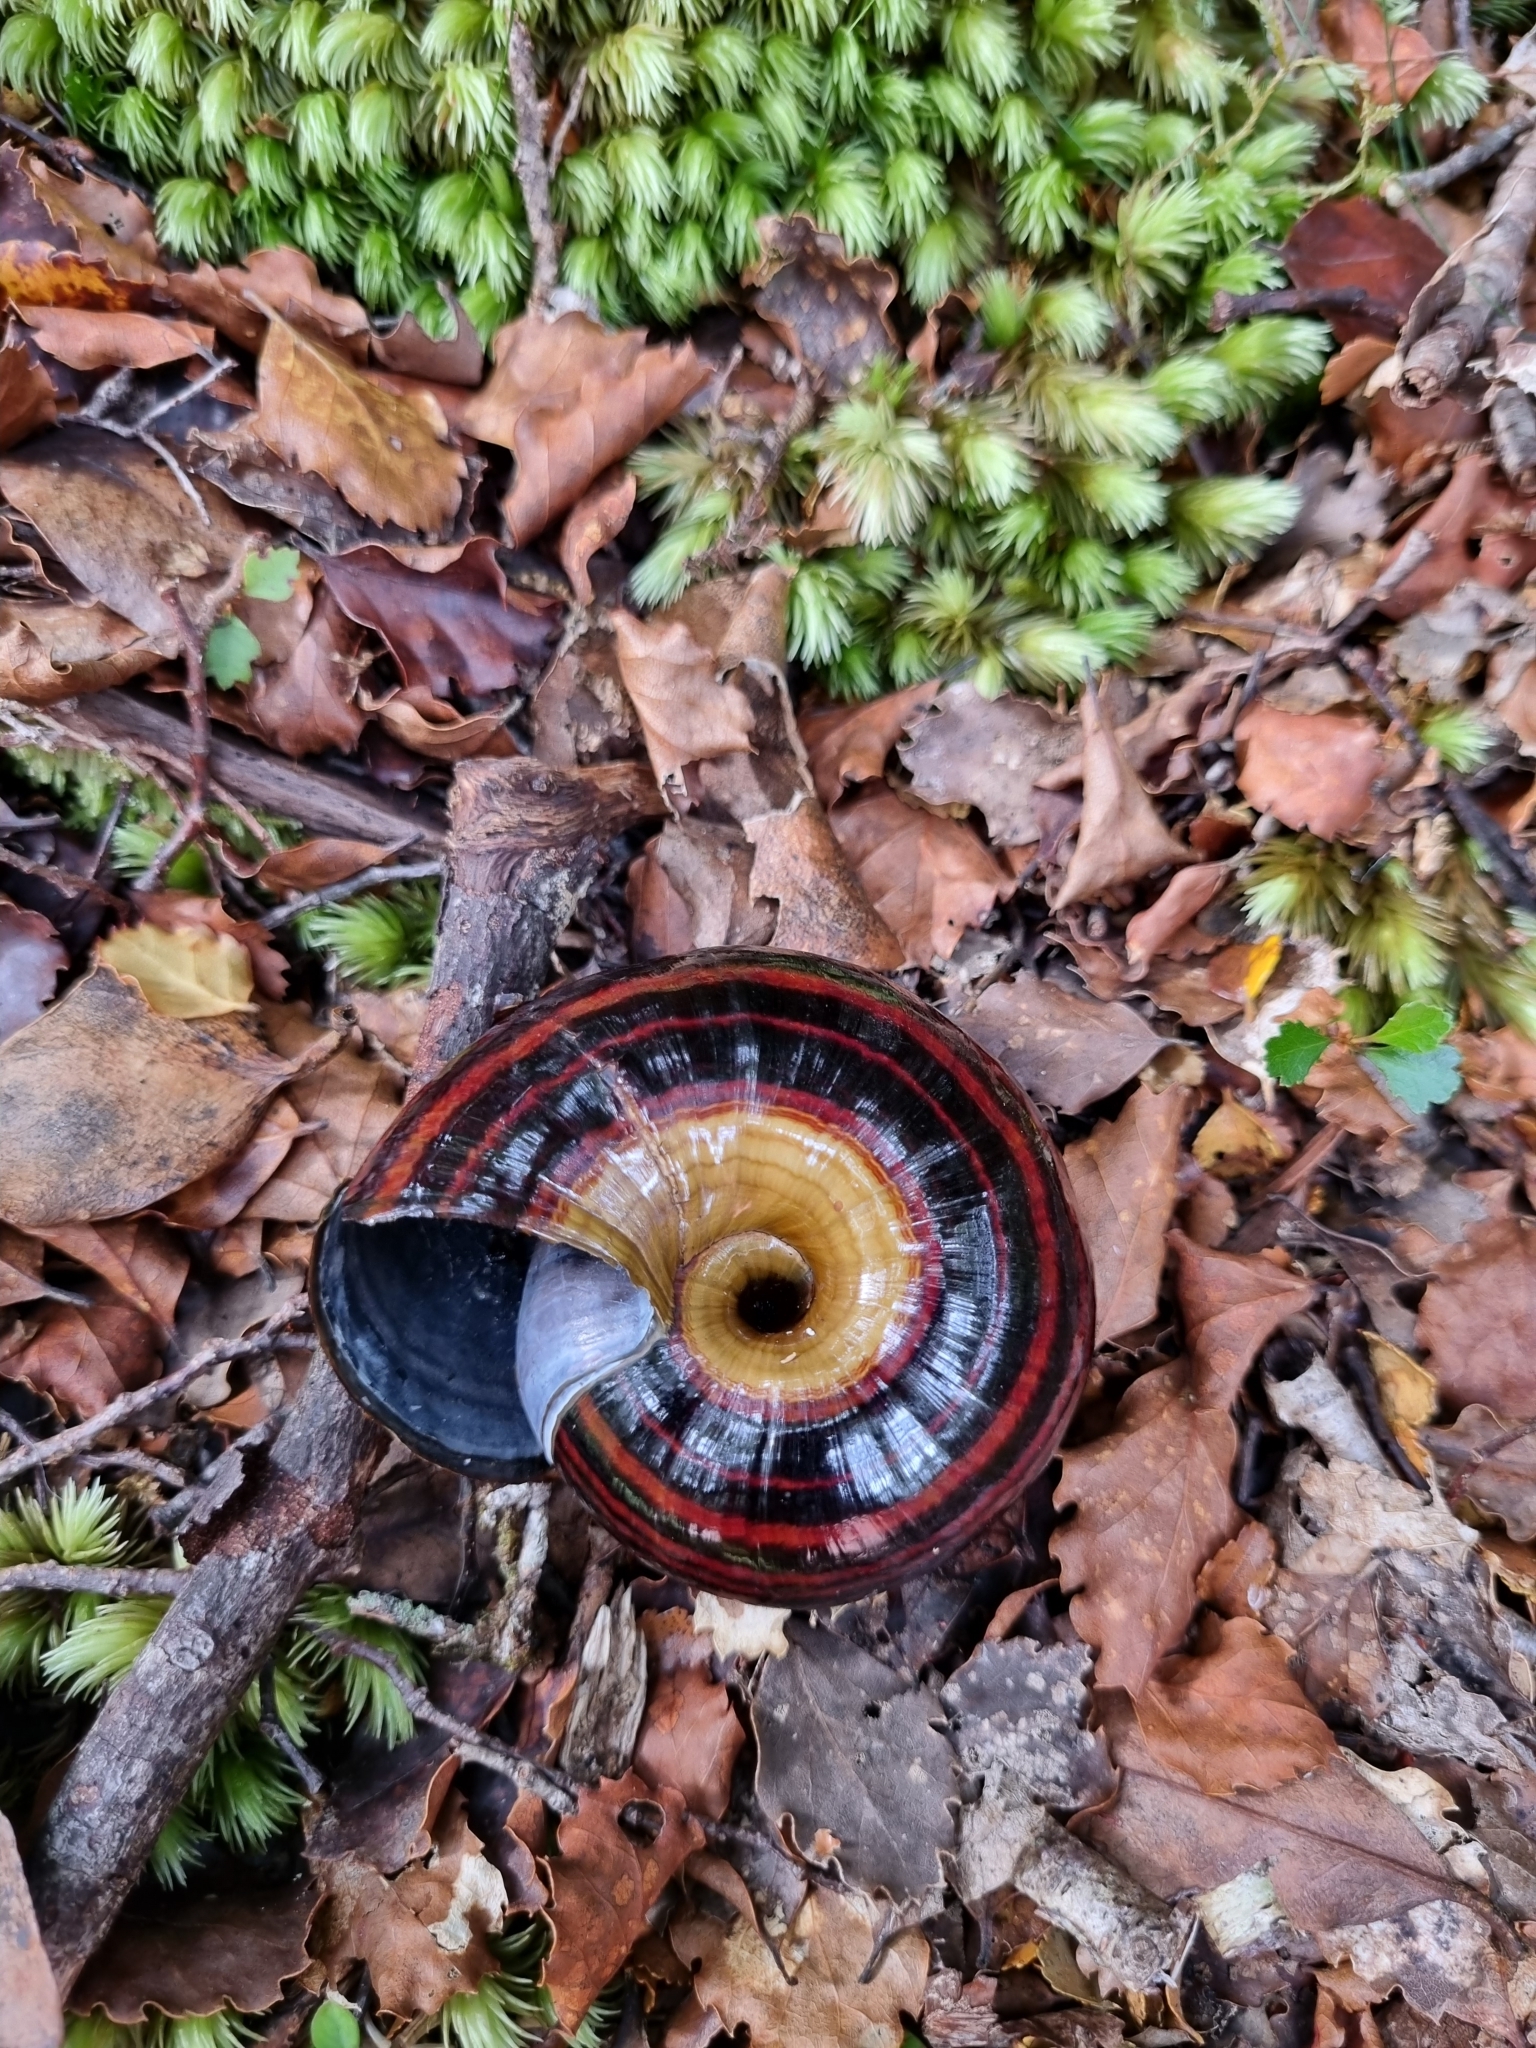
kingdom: Animalia
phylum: Mollusca
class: Gastropoda
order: Stylommatophora
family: Rhytididae
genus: Powelliphanta
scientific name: Powelliphanta hochstetteri
